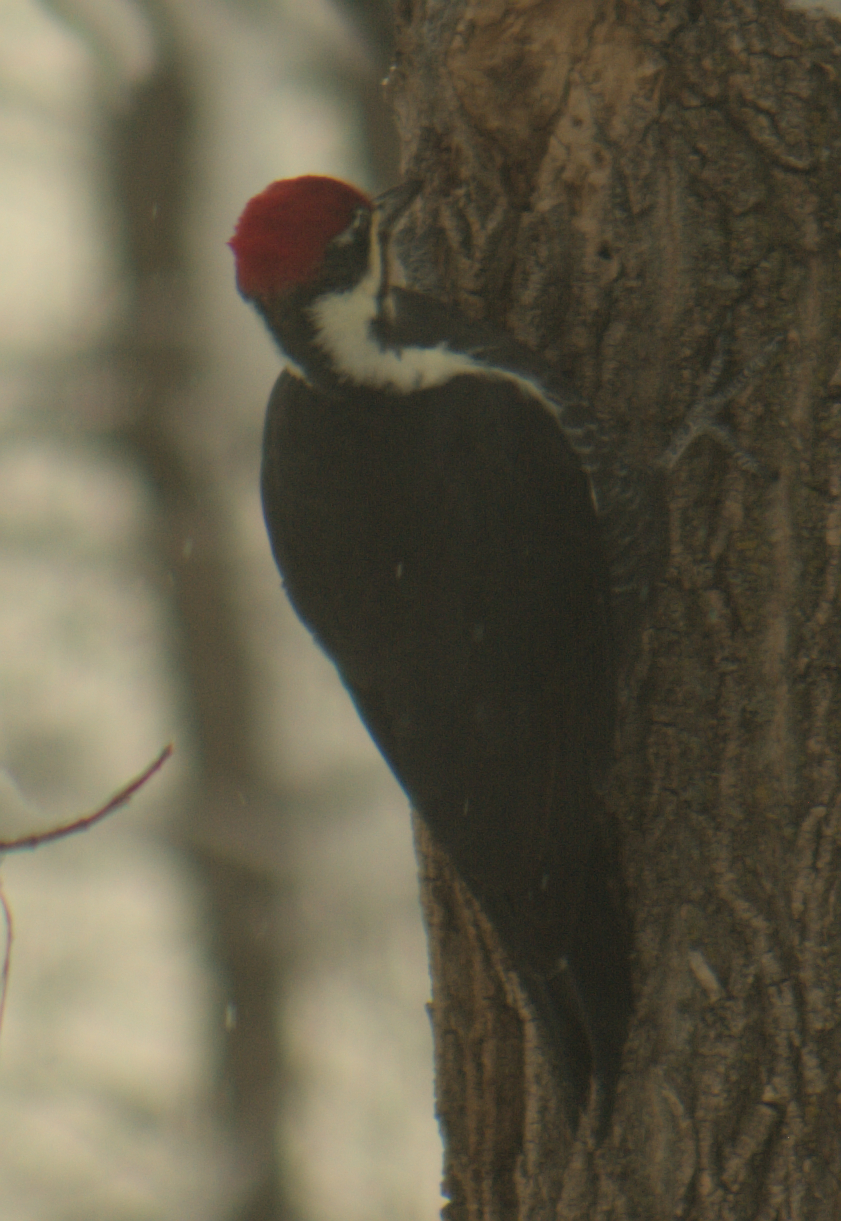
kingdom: Animalia
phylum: Chordata
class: Aves
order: Piciformes
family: Picidae
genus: Dryocopus
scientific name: Dryocopus pileatus
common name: Pileated woodpecker
